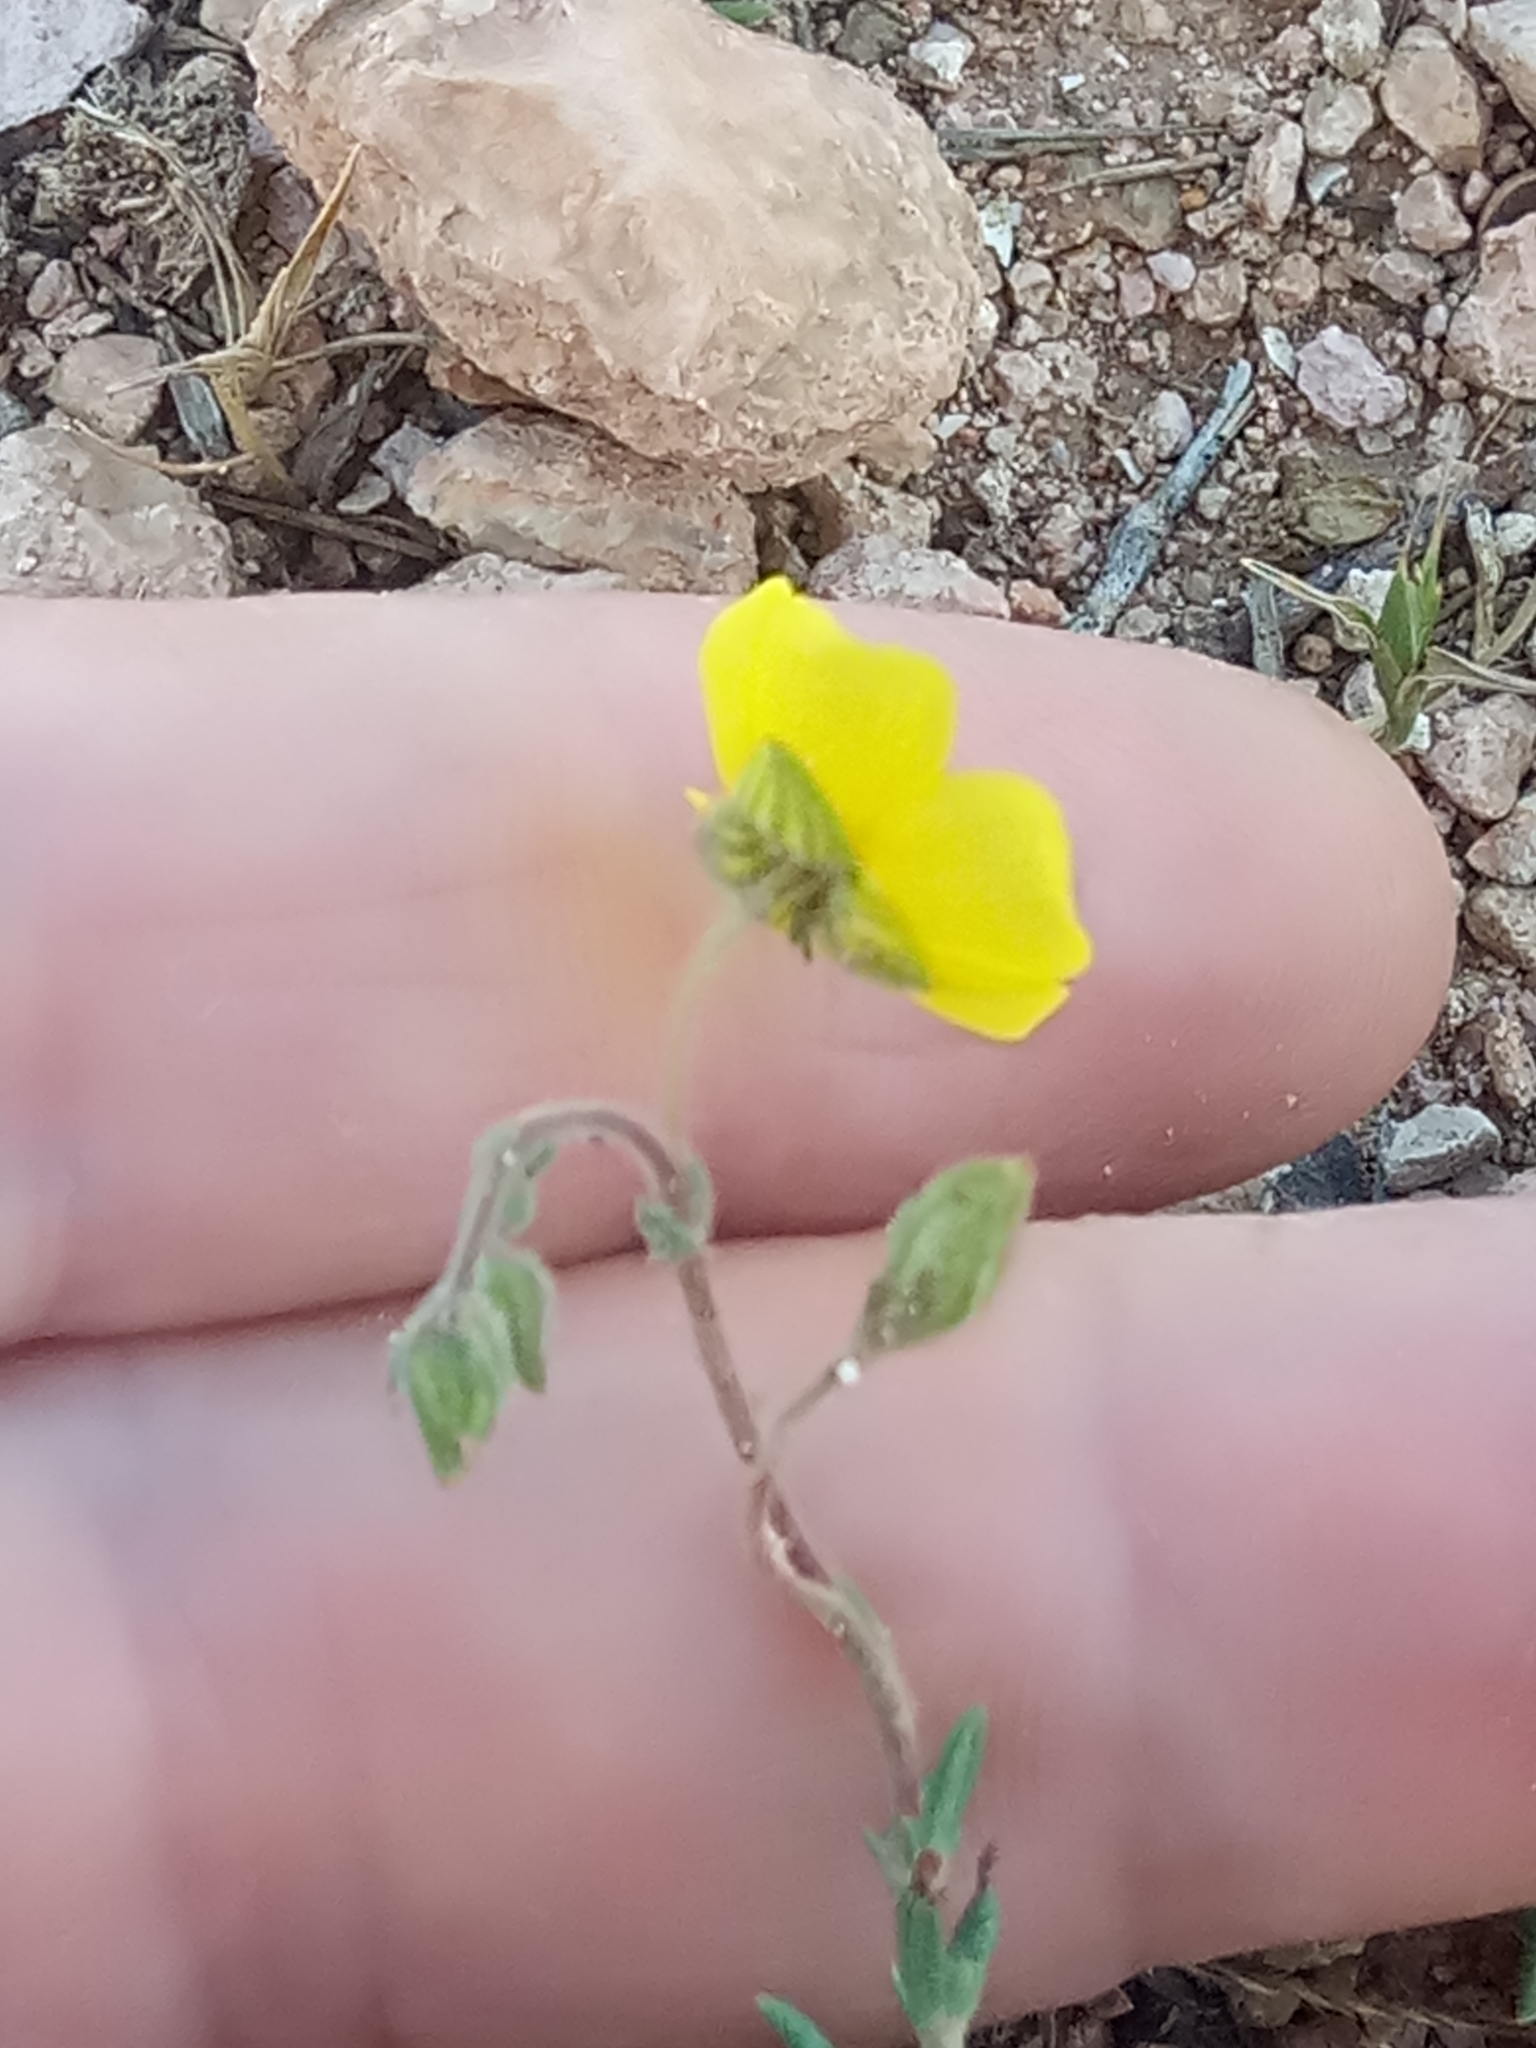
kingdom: Plantae
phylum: Tracheophyta
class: Magnoliopsida
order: Malvales
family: Cistaceae
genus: Fumana
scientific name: Fumana laevis
